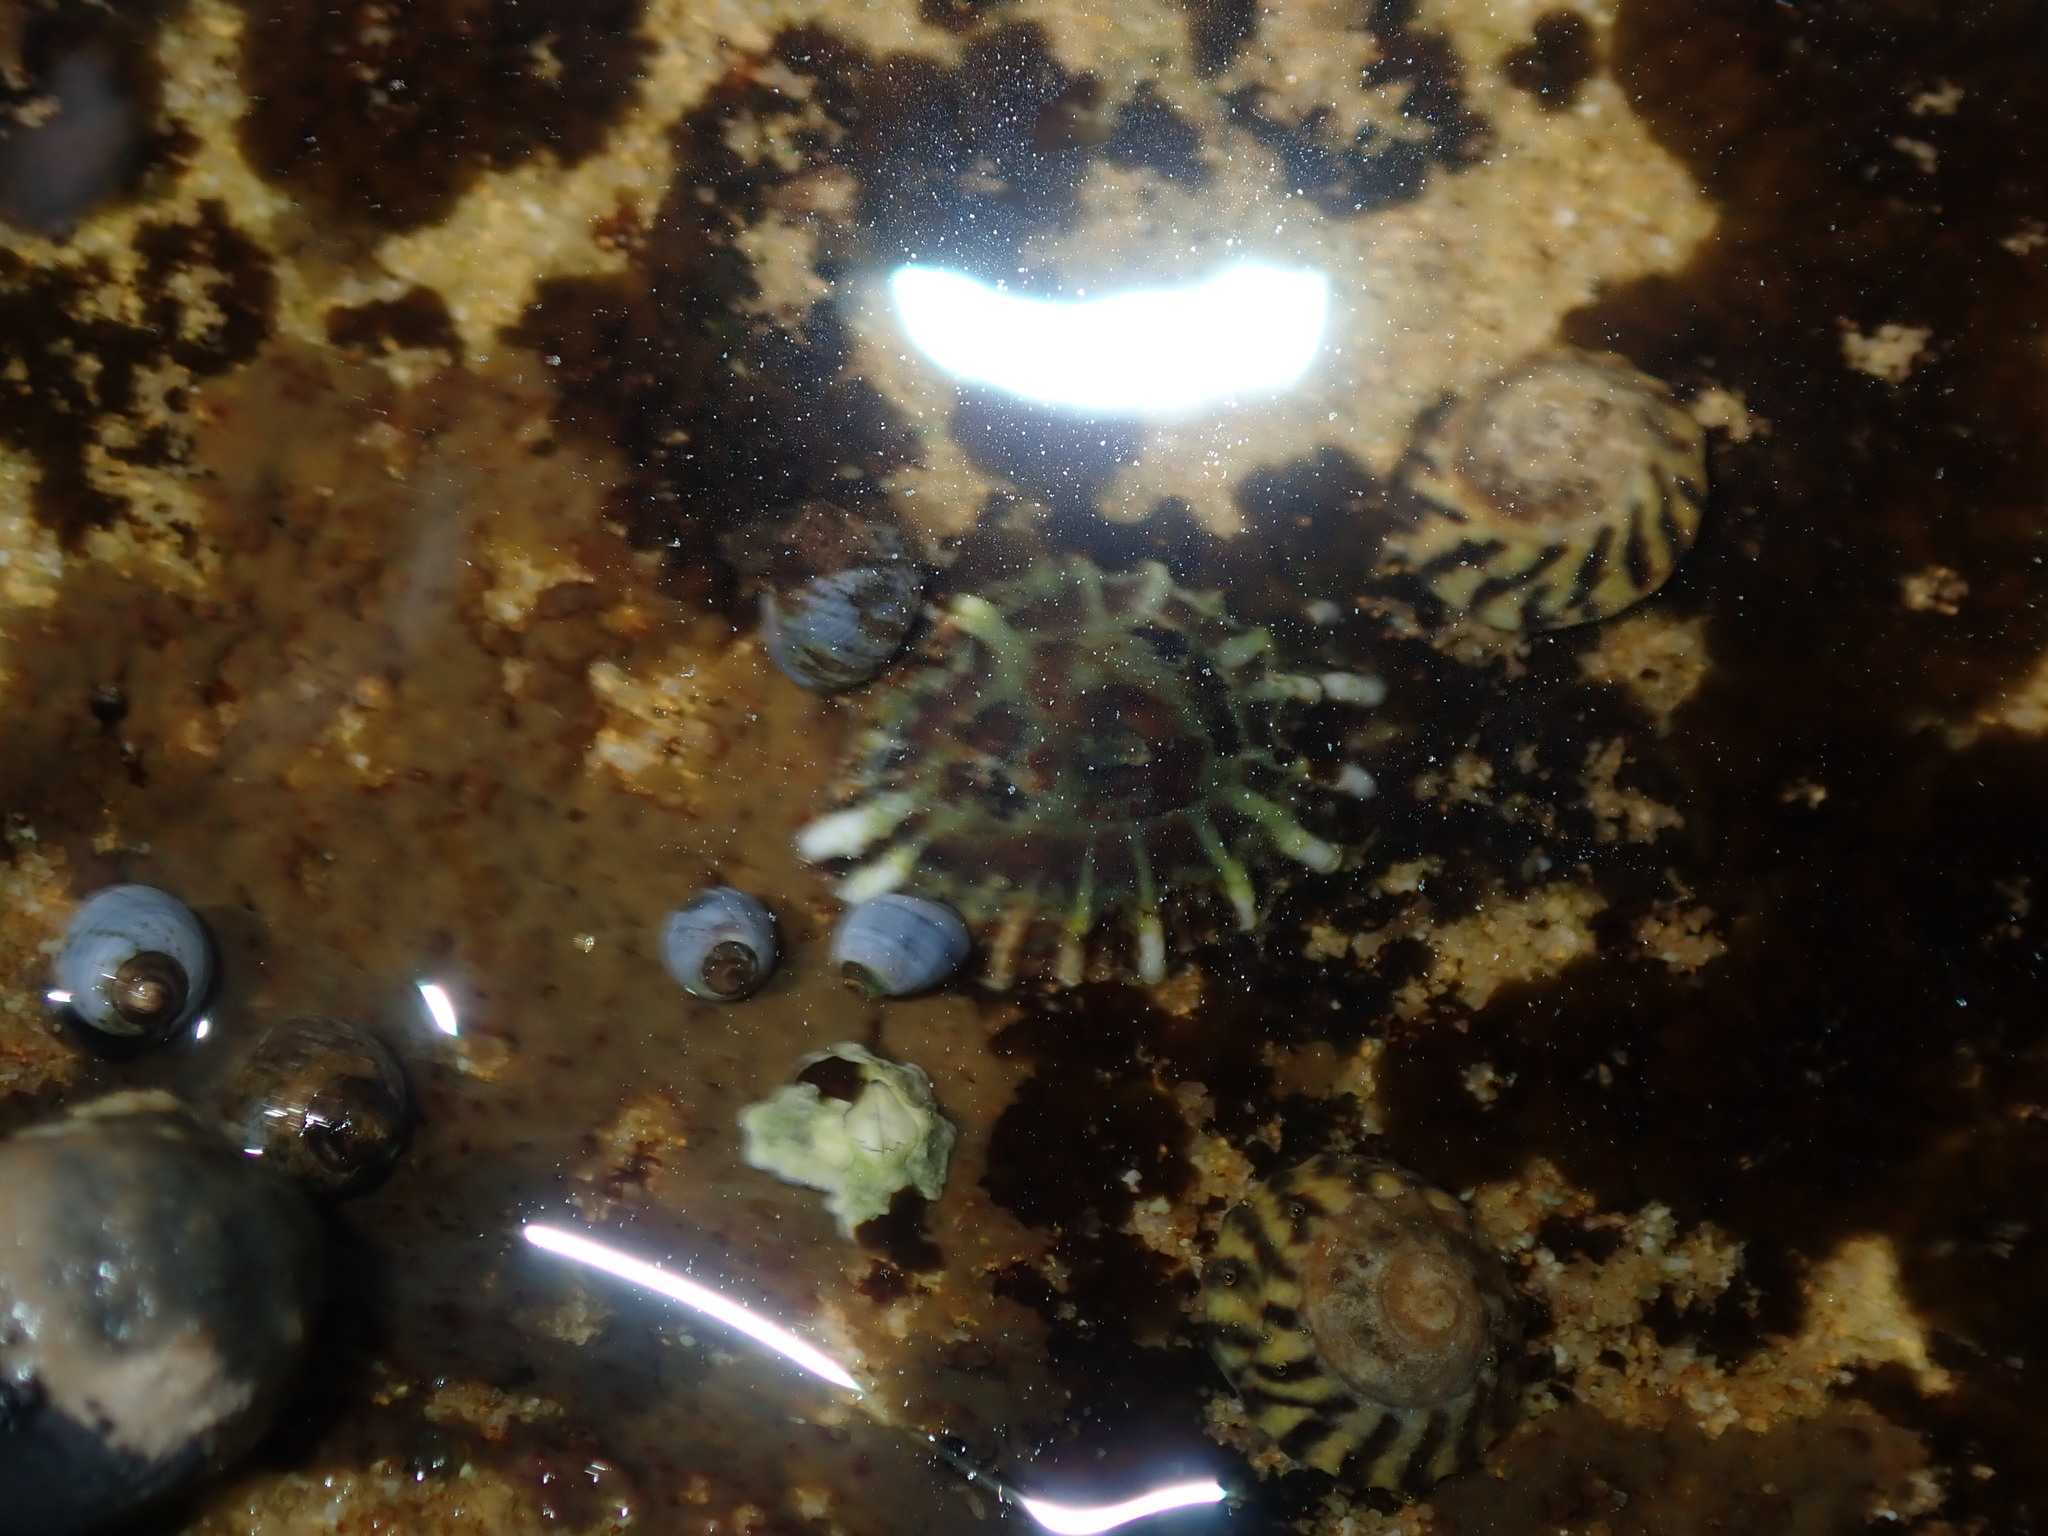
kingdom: Animalia
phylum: Mollusca
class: Gastropoda
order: Siphonariida
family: Siphonariidae
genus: Siphonaria
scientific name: Siphonaria denticulata
